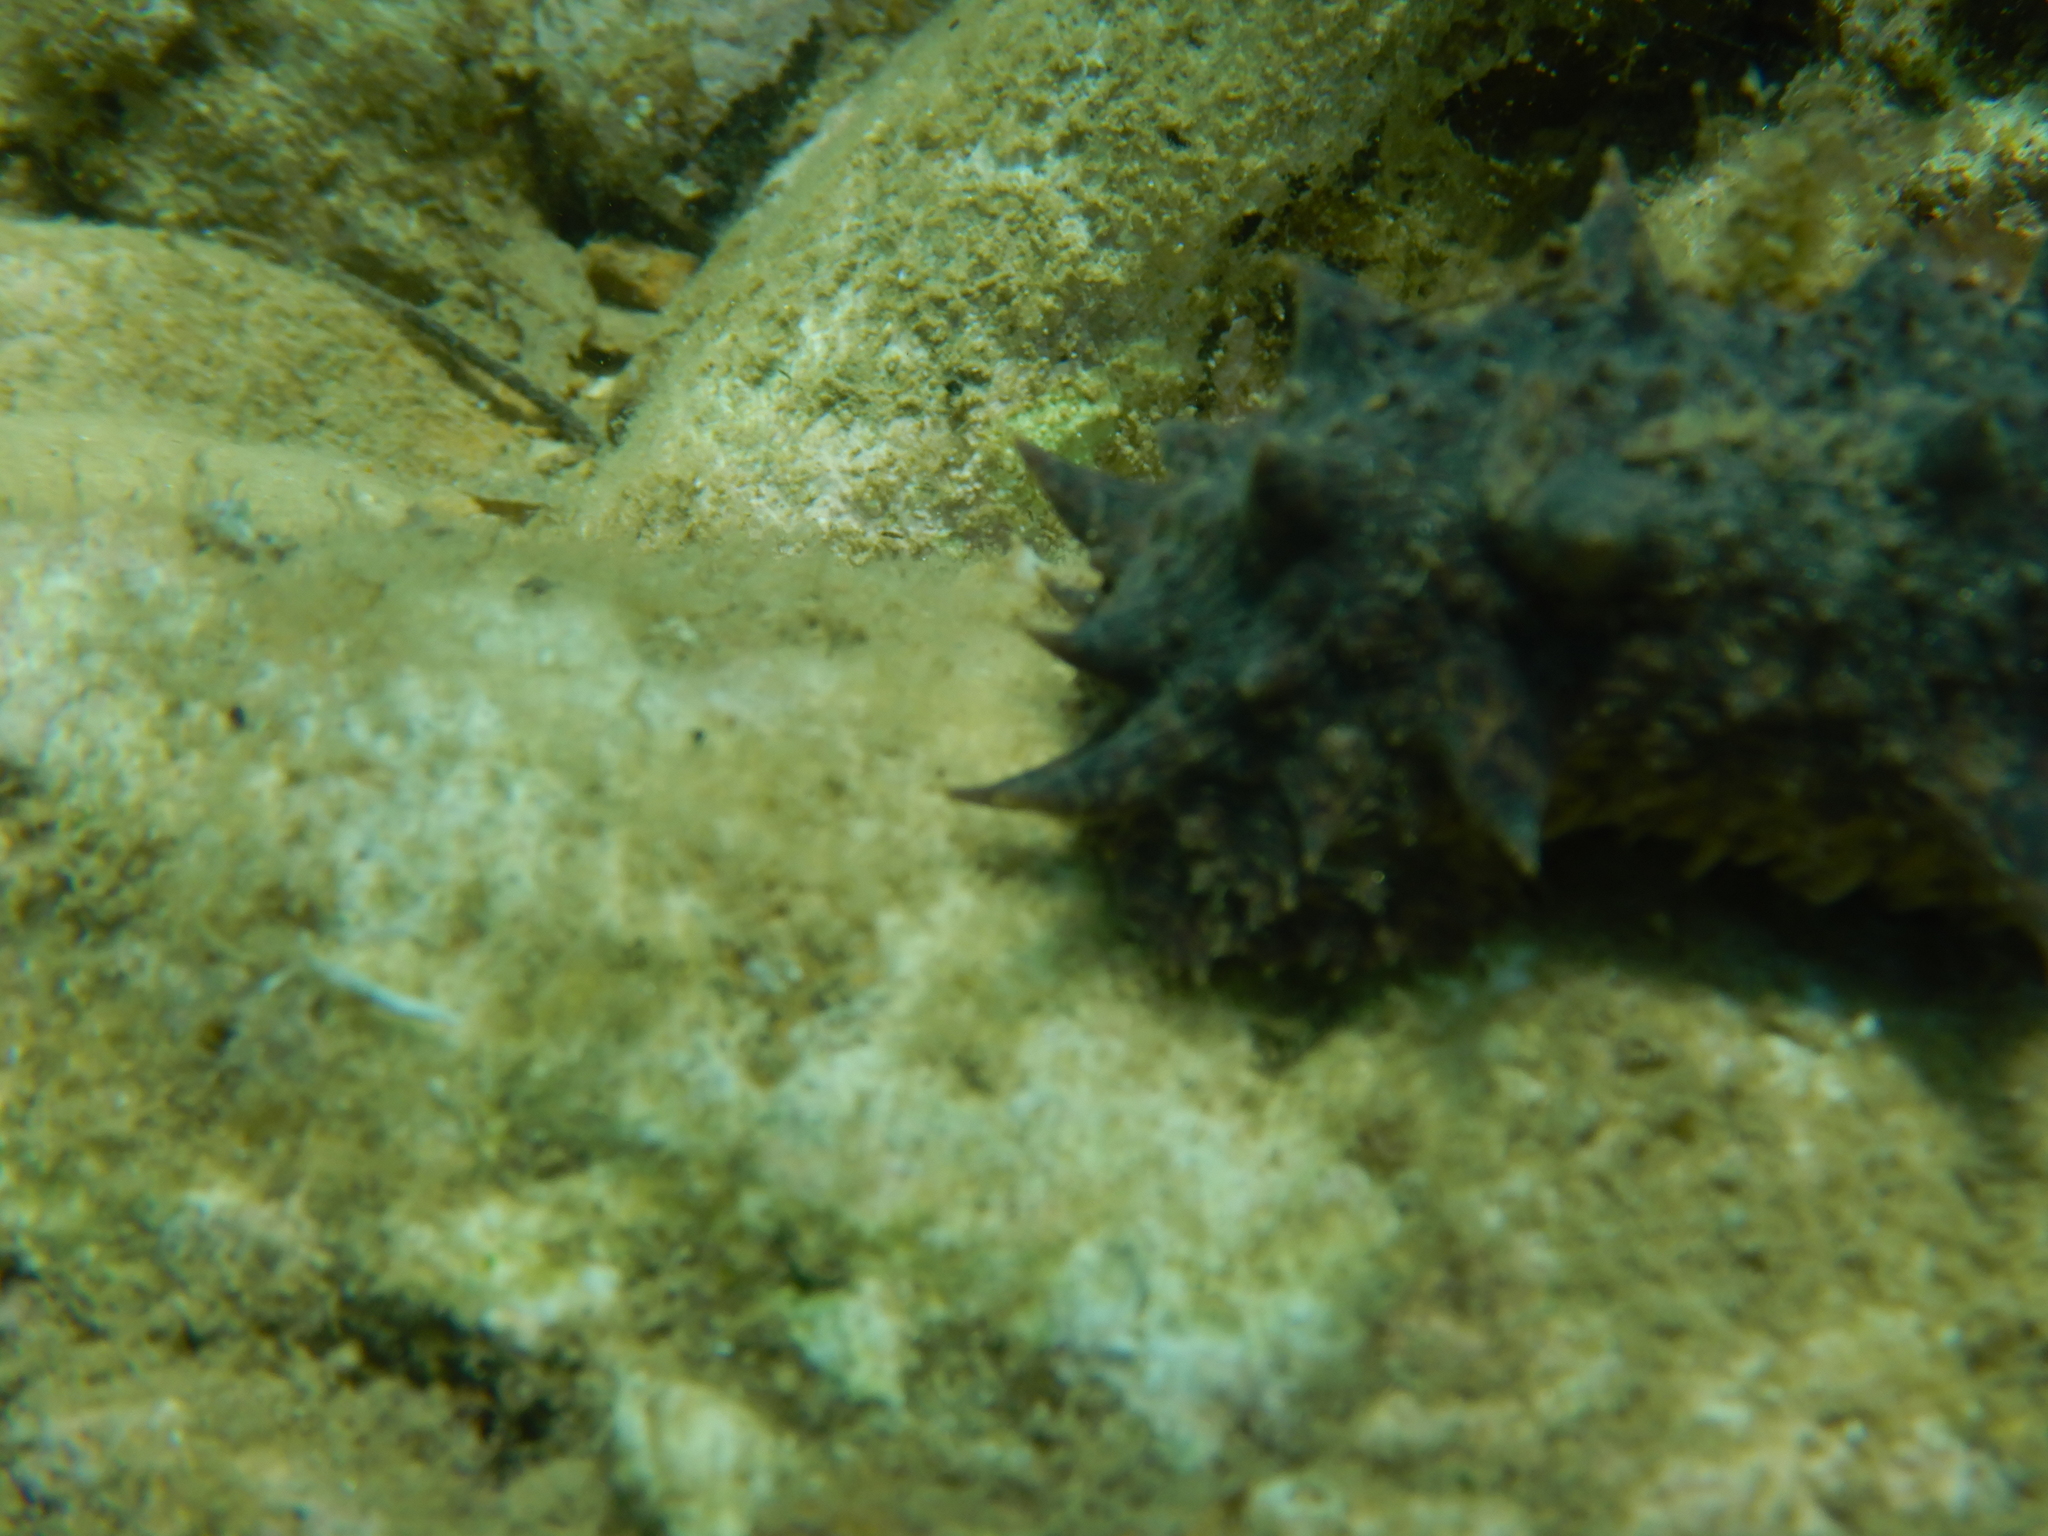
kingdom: Animalia
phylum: Echinodermata
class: Holothuroidea
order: Holothuriida
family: Holothuriidae
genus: Holothuria
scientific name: Holothuria tubulosa
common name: Cotton-spinner
